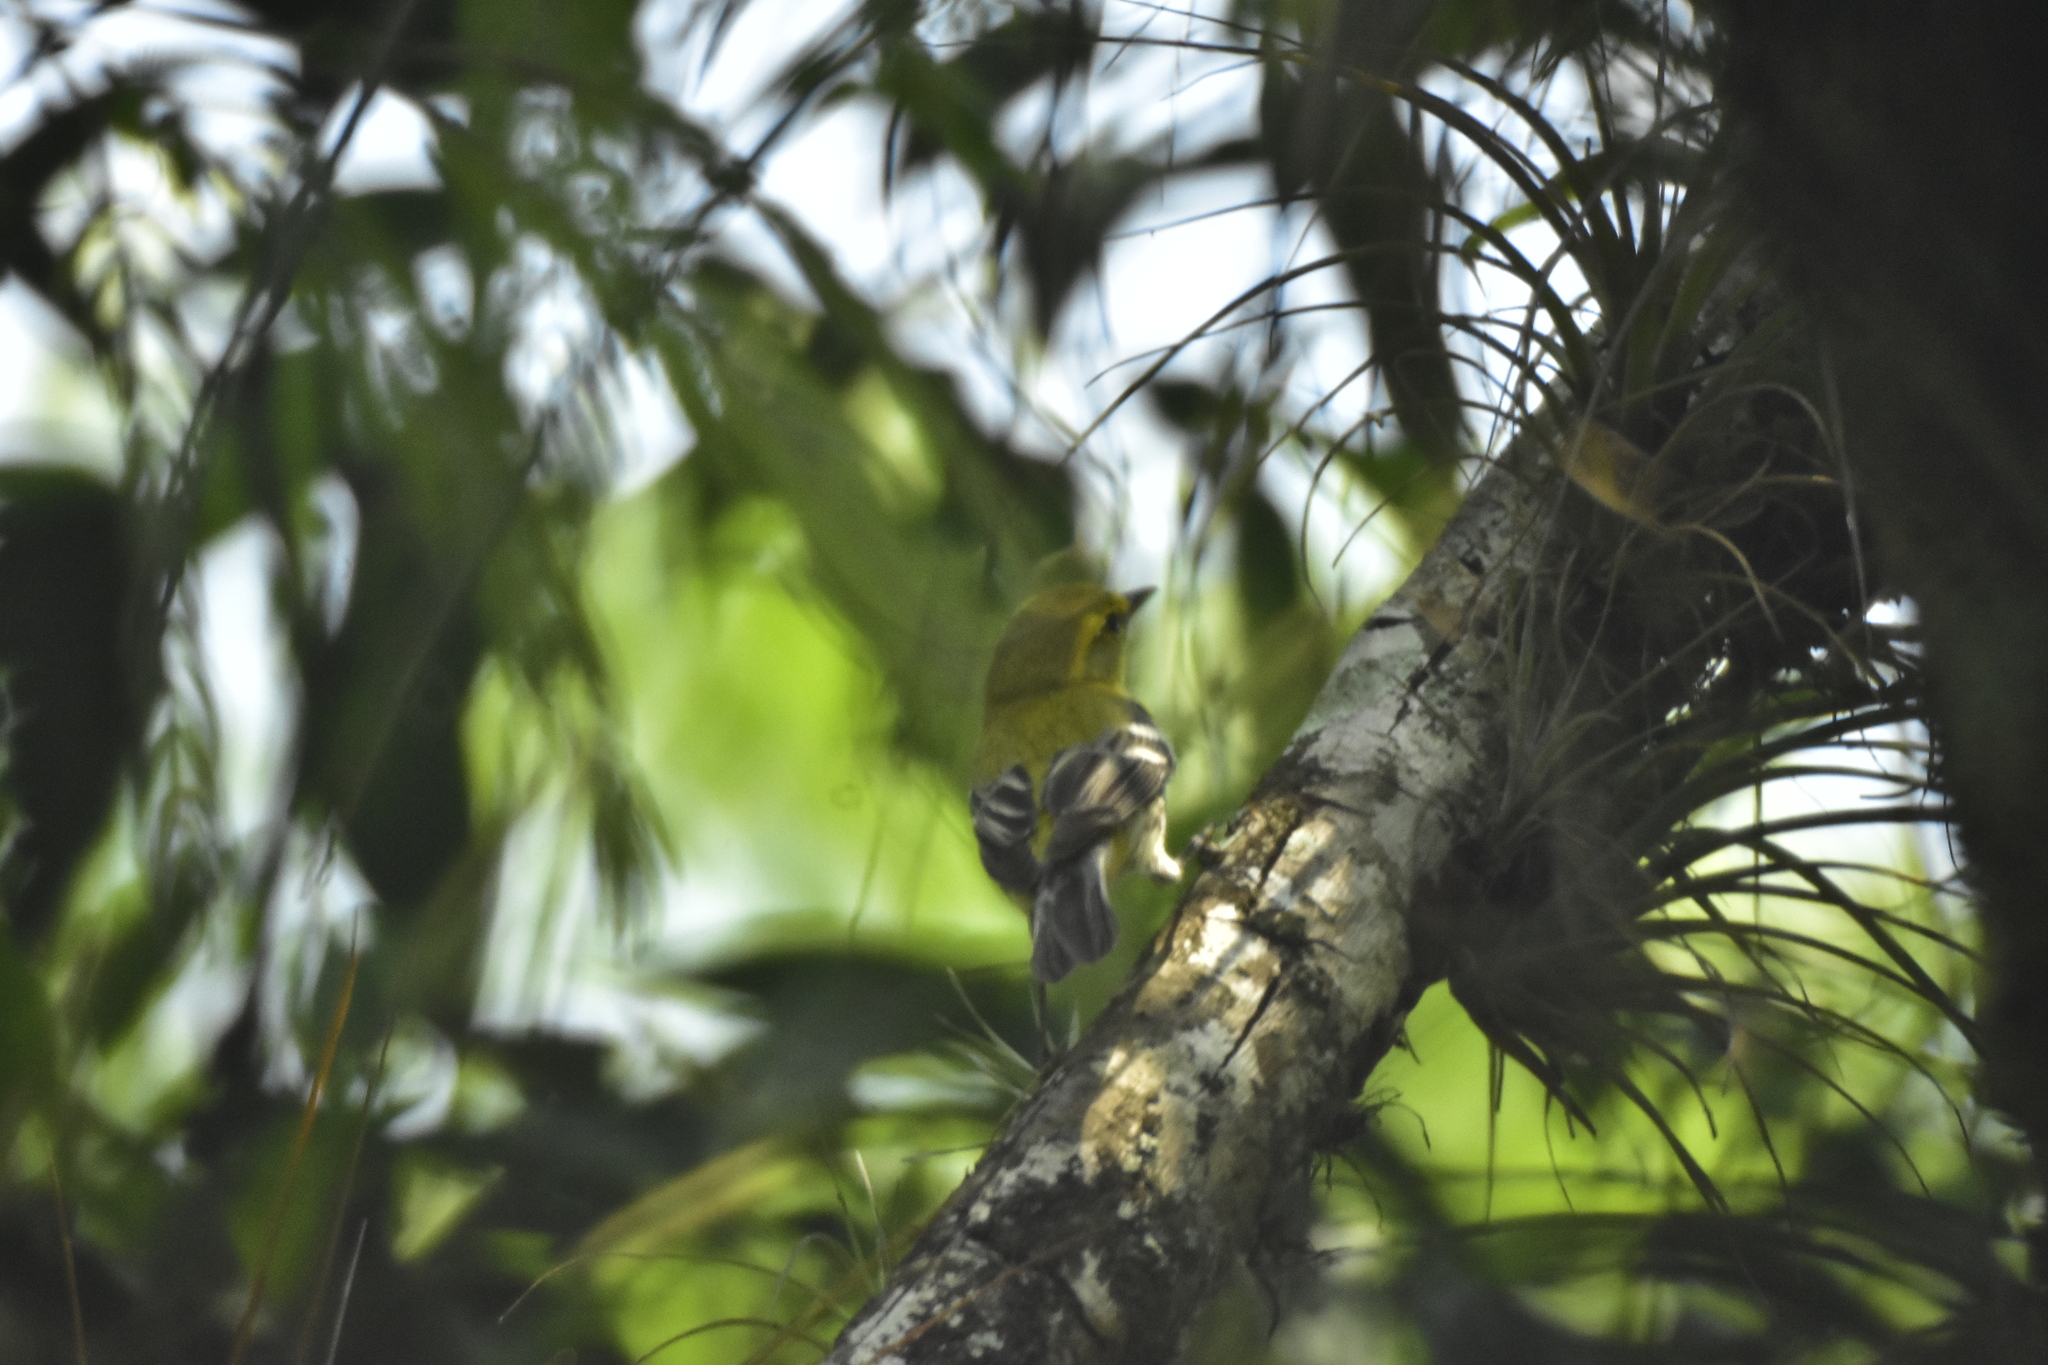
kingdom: Animalia
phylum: Chordata
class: Aves
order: Passeriformes
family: Parulidae
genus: Setophaga
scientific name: Setophaga virens
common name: Black-throated green warbler
